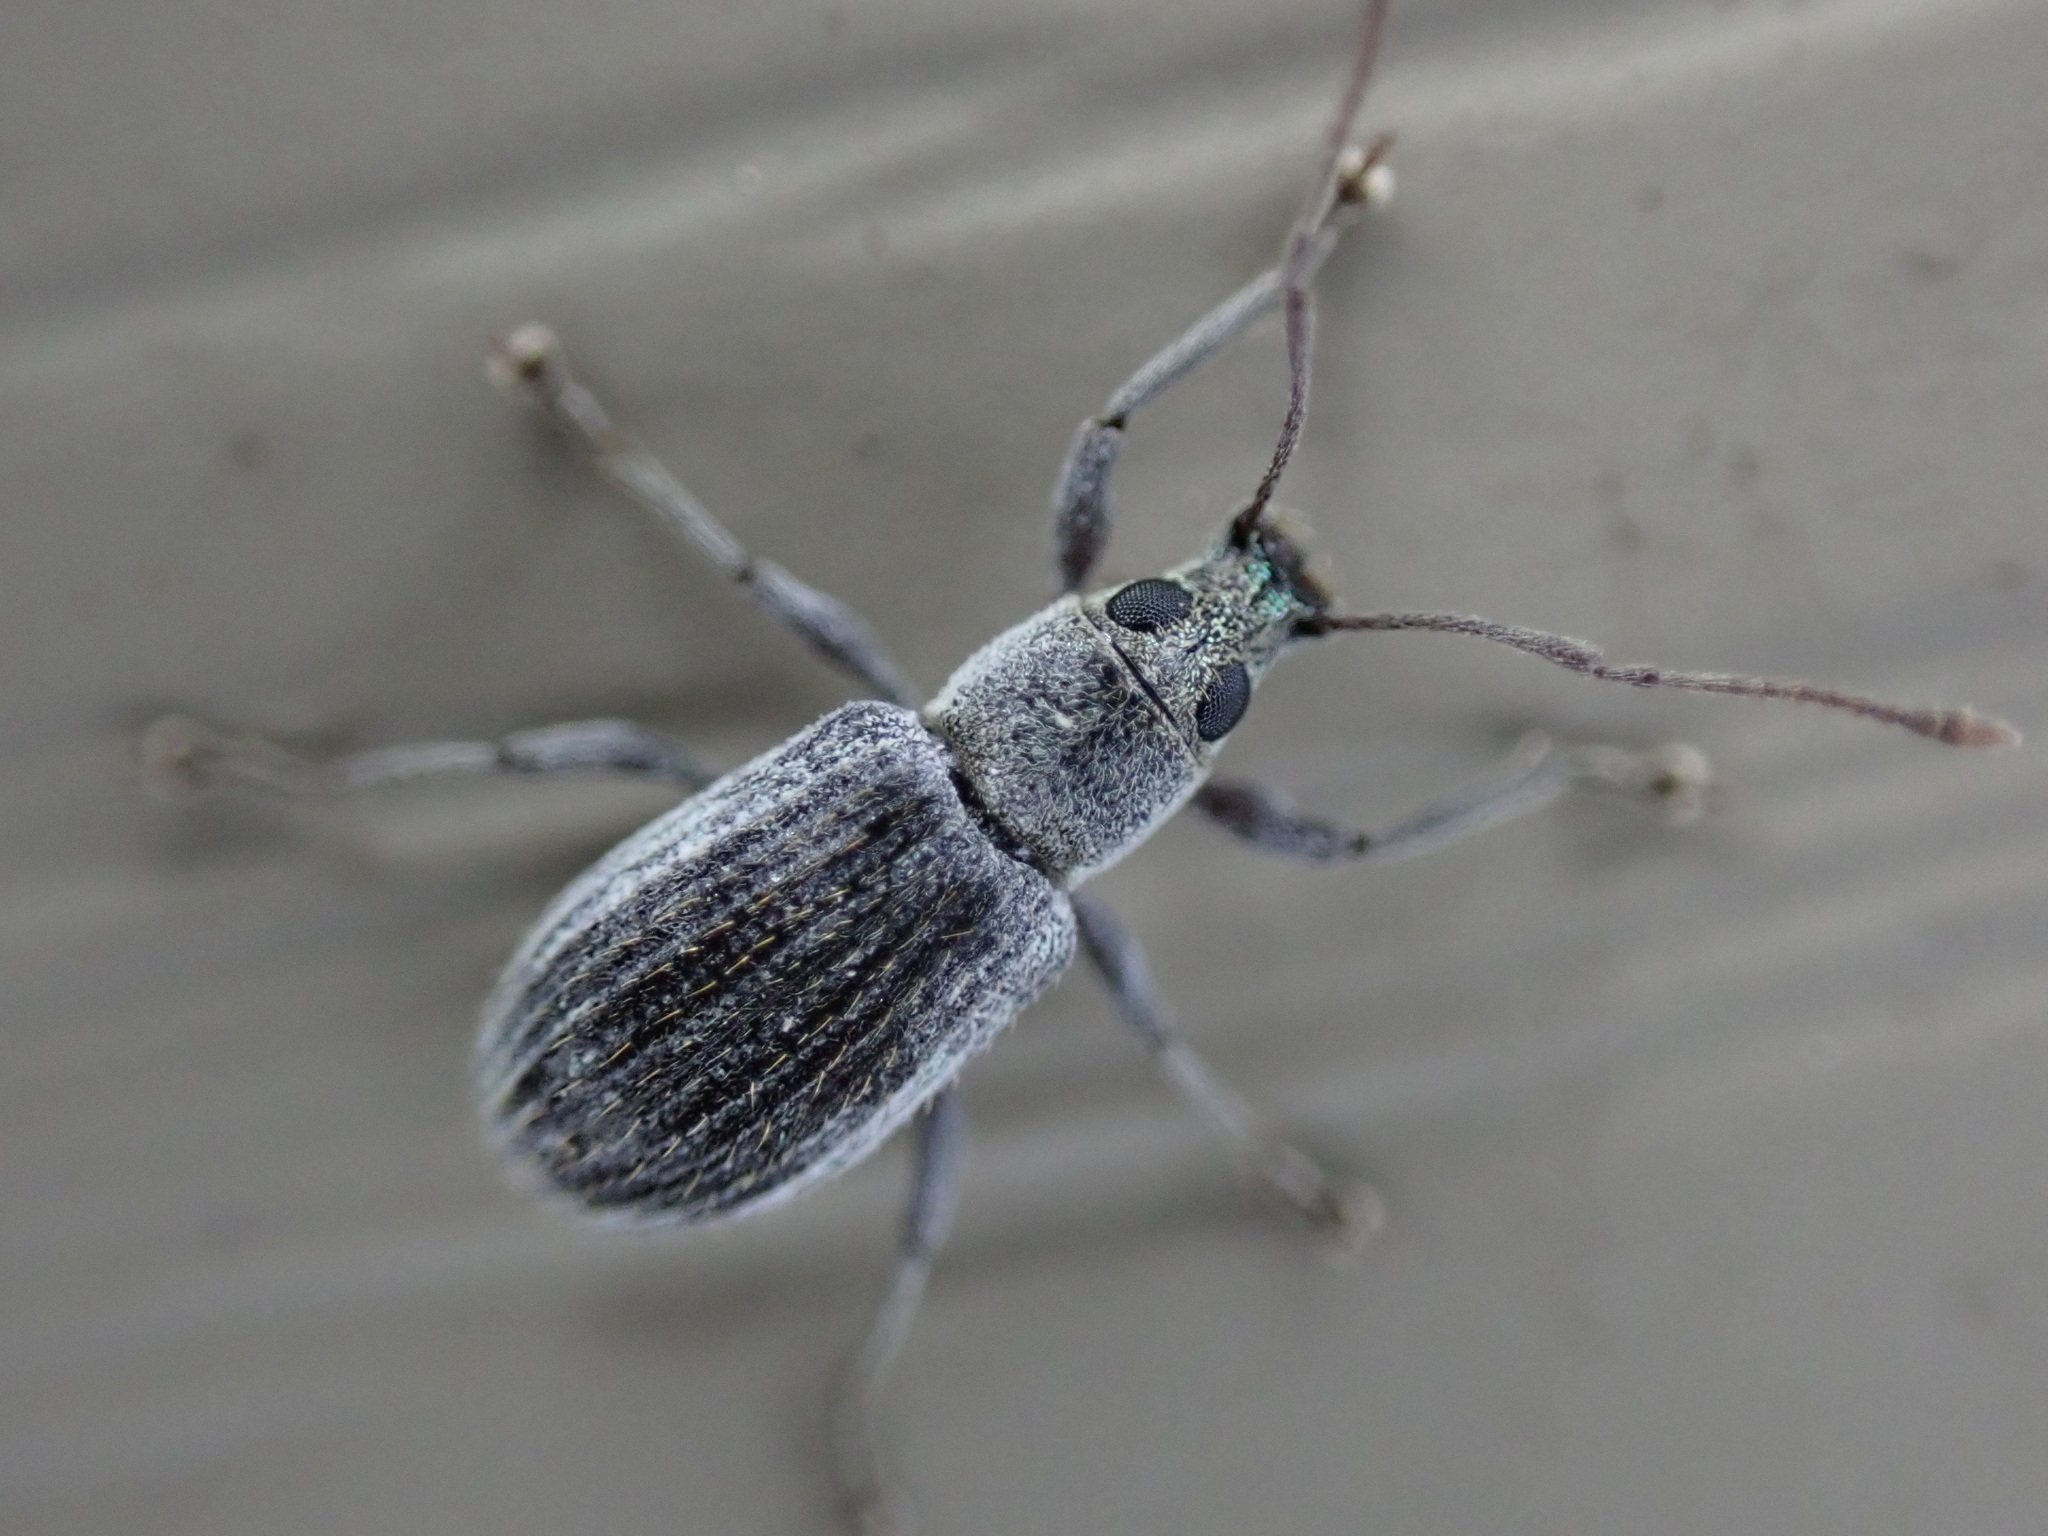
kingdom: Animalia
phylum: Arthropoda
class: Insecta
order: Coleoptera
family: Curculionidae
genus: Cyrtepistomus
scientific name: Cyrtepistomus castaneus
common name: Weevil
